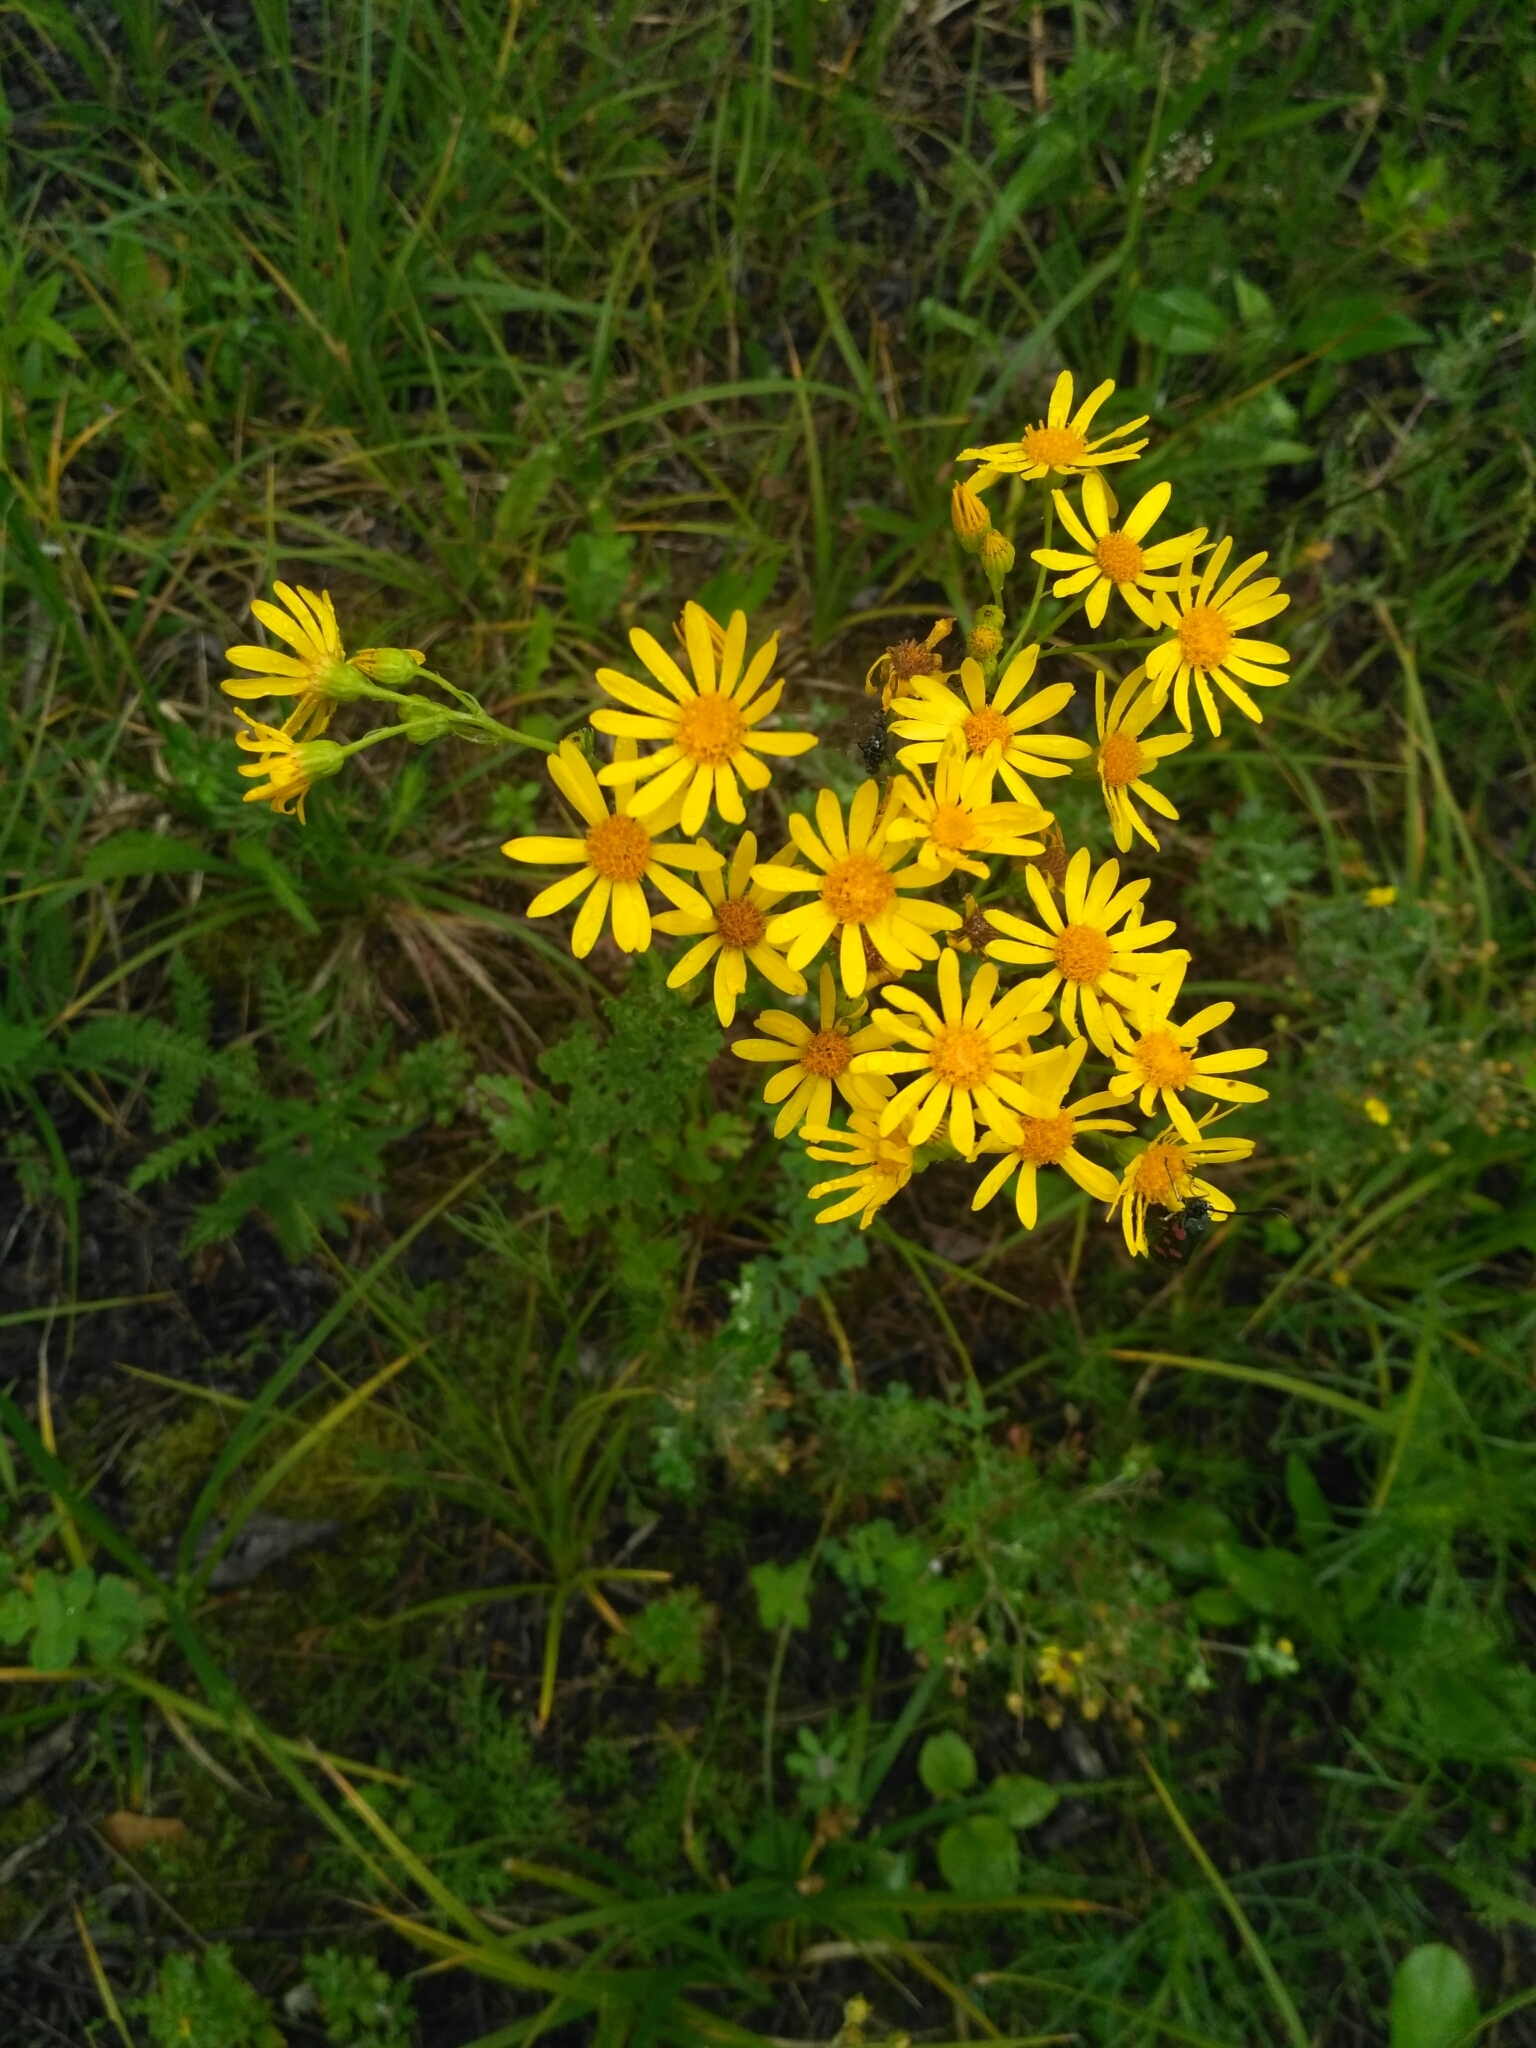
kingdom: Plantae
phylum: Tracheophyta
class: Magnoliopsida
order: Asterales
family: Asteraceae
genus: Jacobaea
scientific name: Jacobaea vulgaris
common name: Stinking willie
